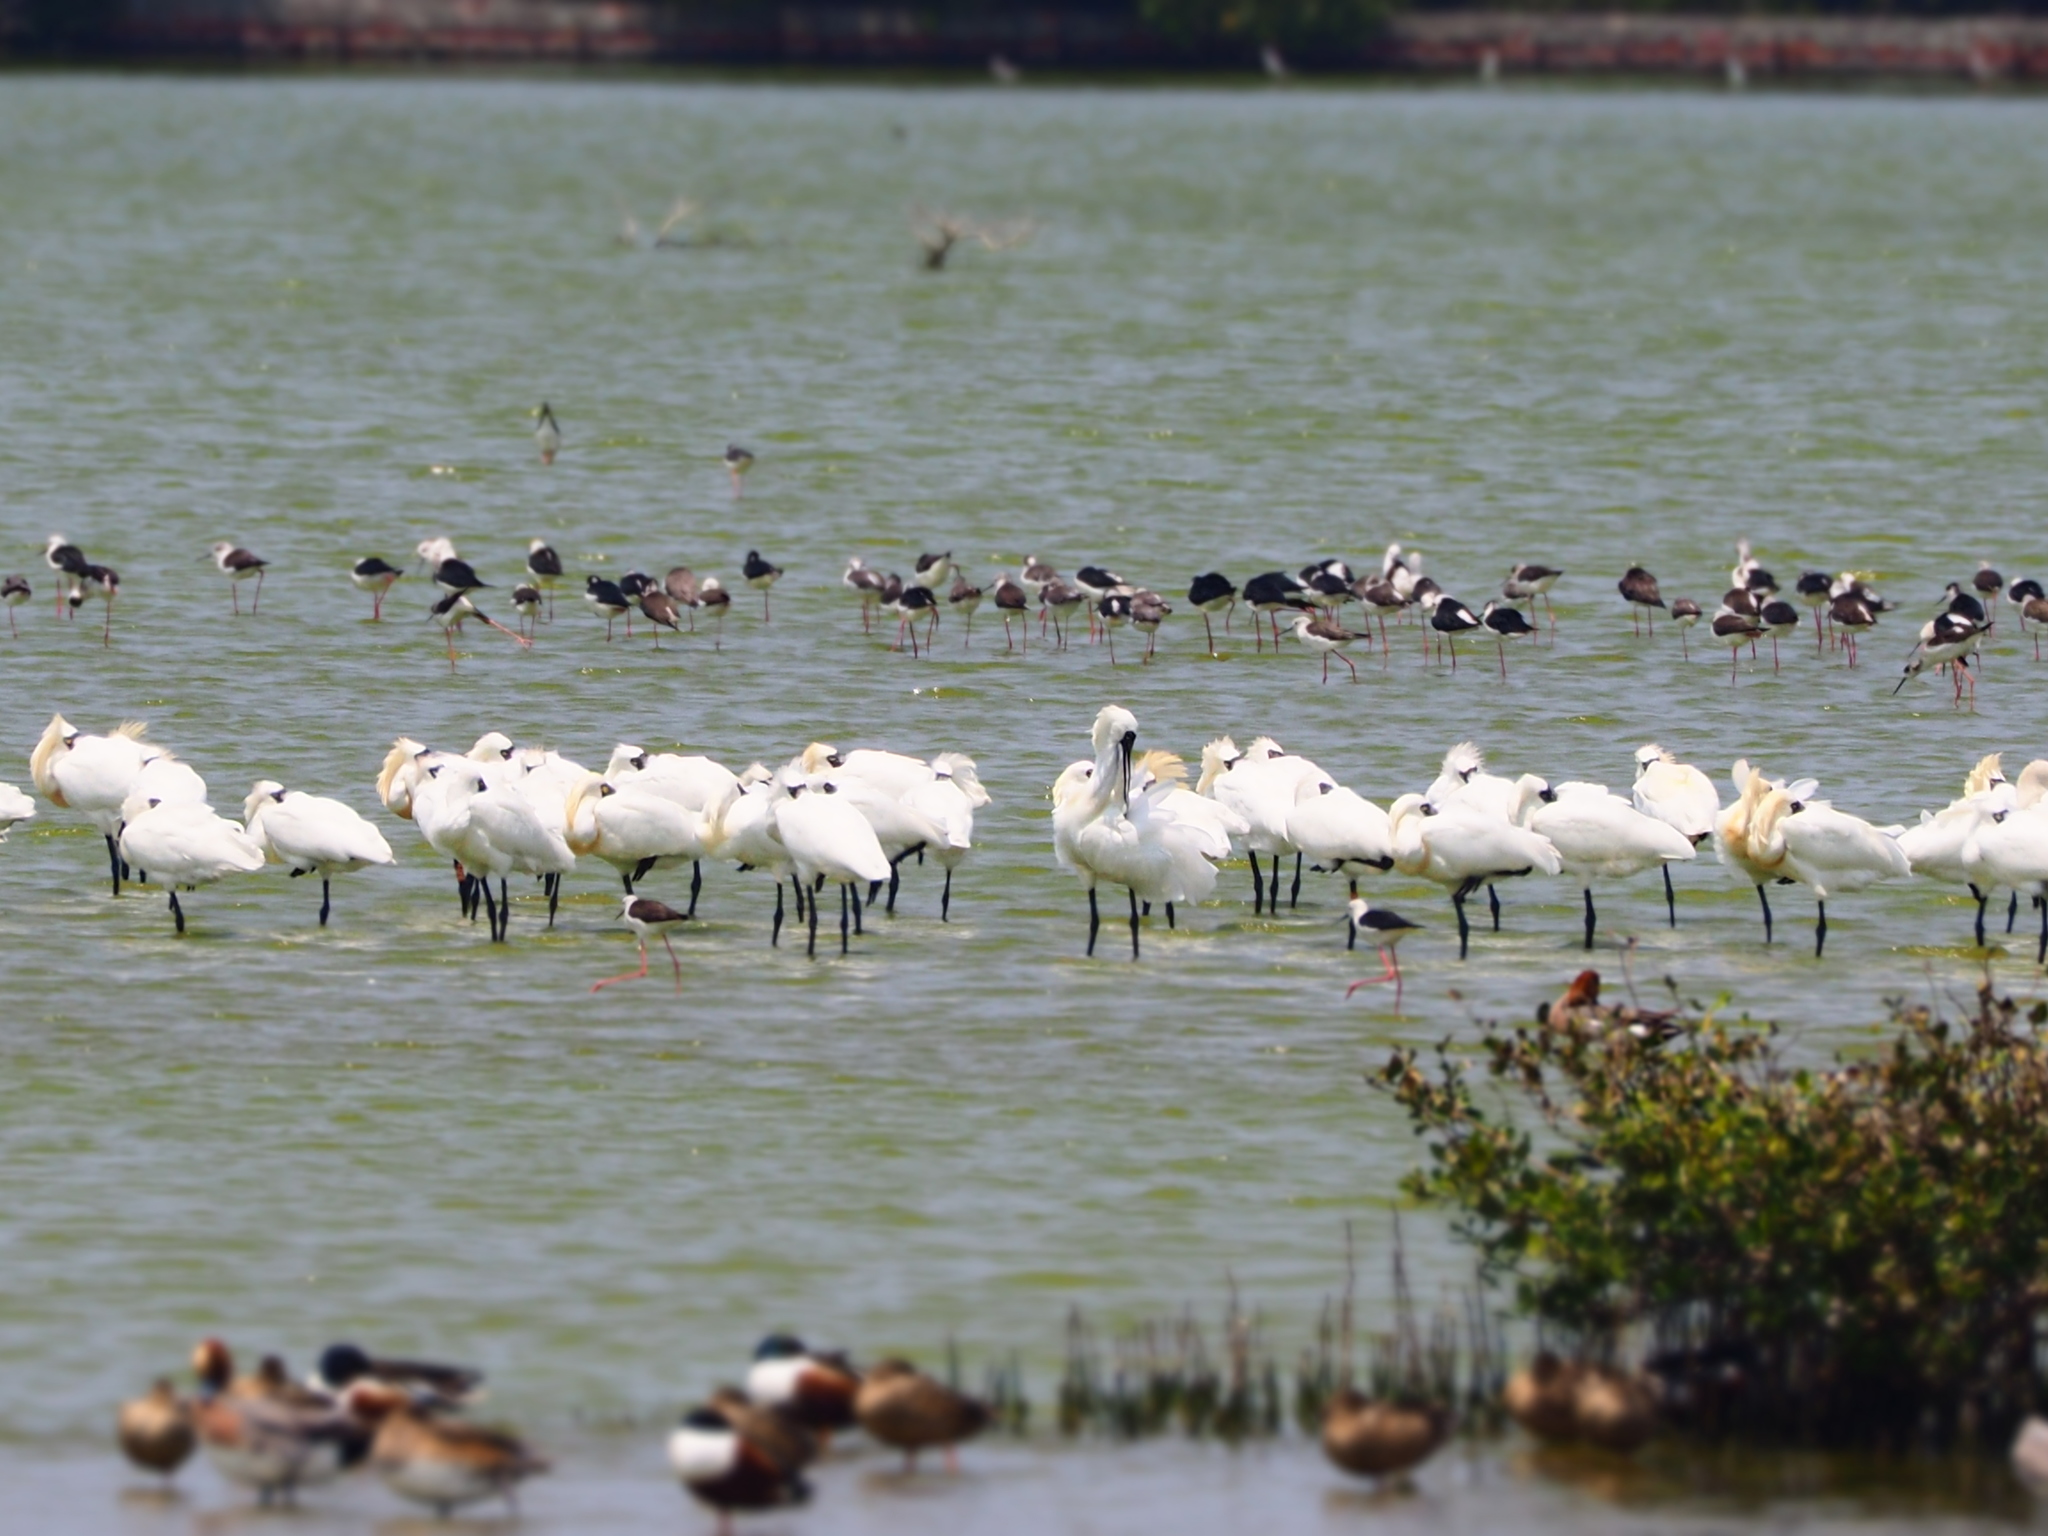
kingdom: Animalia
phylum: Chordata
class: Aves
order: Pelecaniformes
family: Threskiornithidae
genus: Platalea
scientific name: Platalea minor
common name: Black-faced spoonbill
